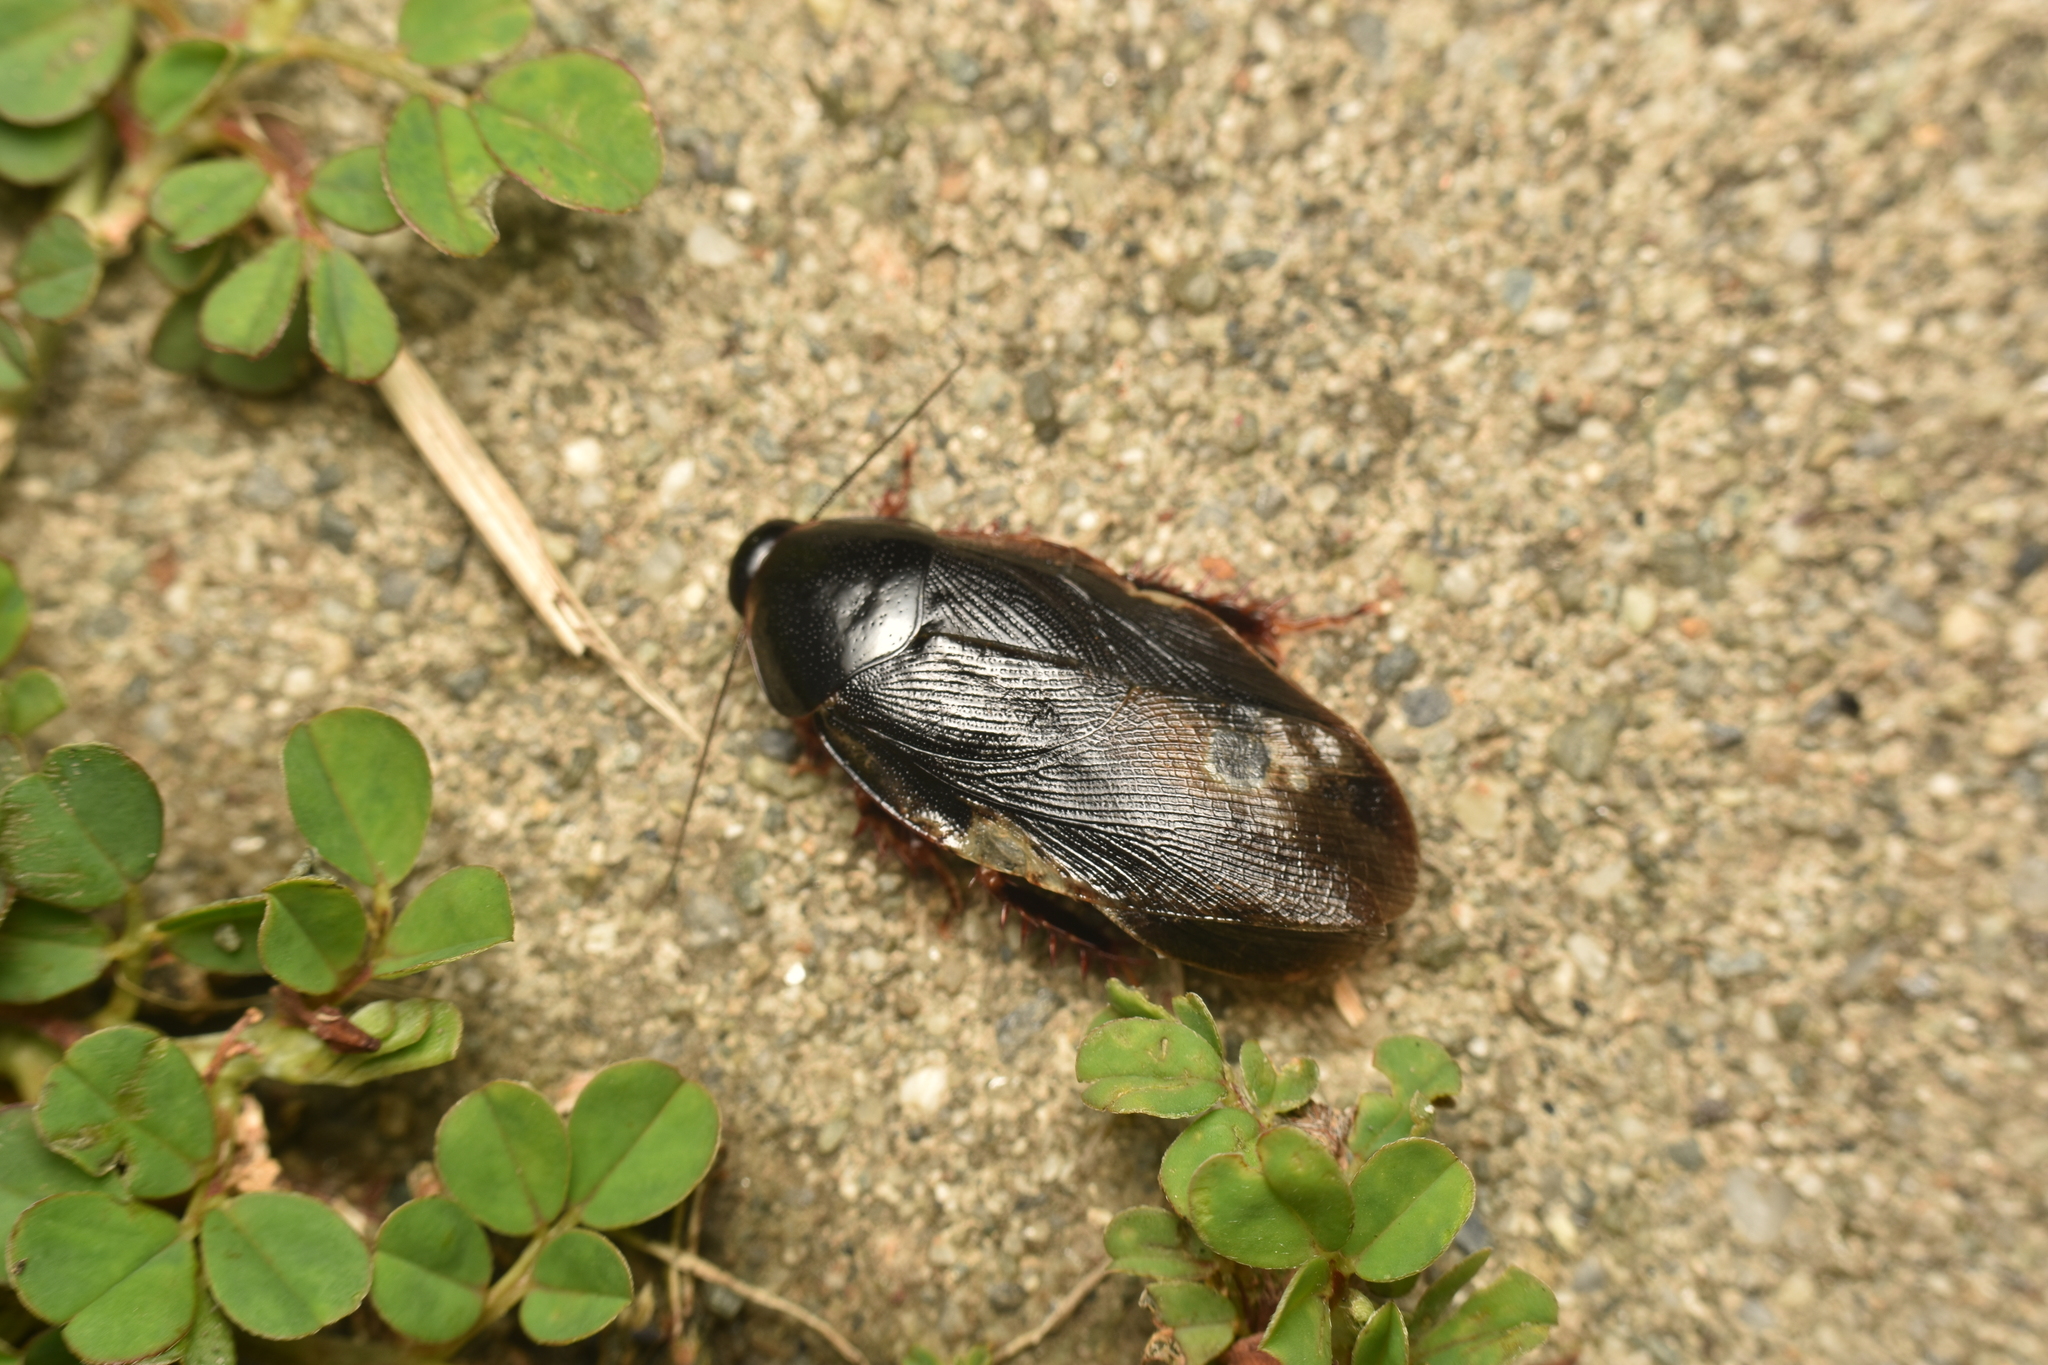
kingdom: Animalia
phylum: Arthropoda
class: Insecta
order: Blattodea
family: Blaberidae
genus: Pycnoscelus
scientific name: Pycnoscelus surinamensis
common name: Surinam cockroach
